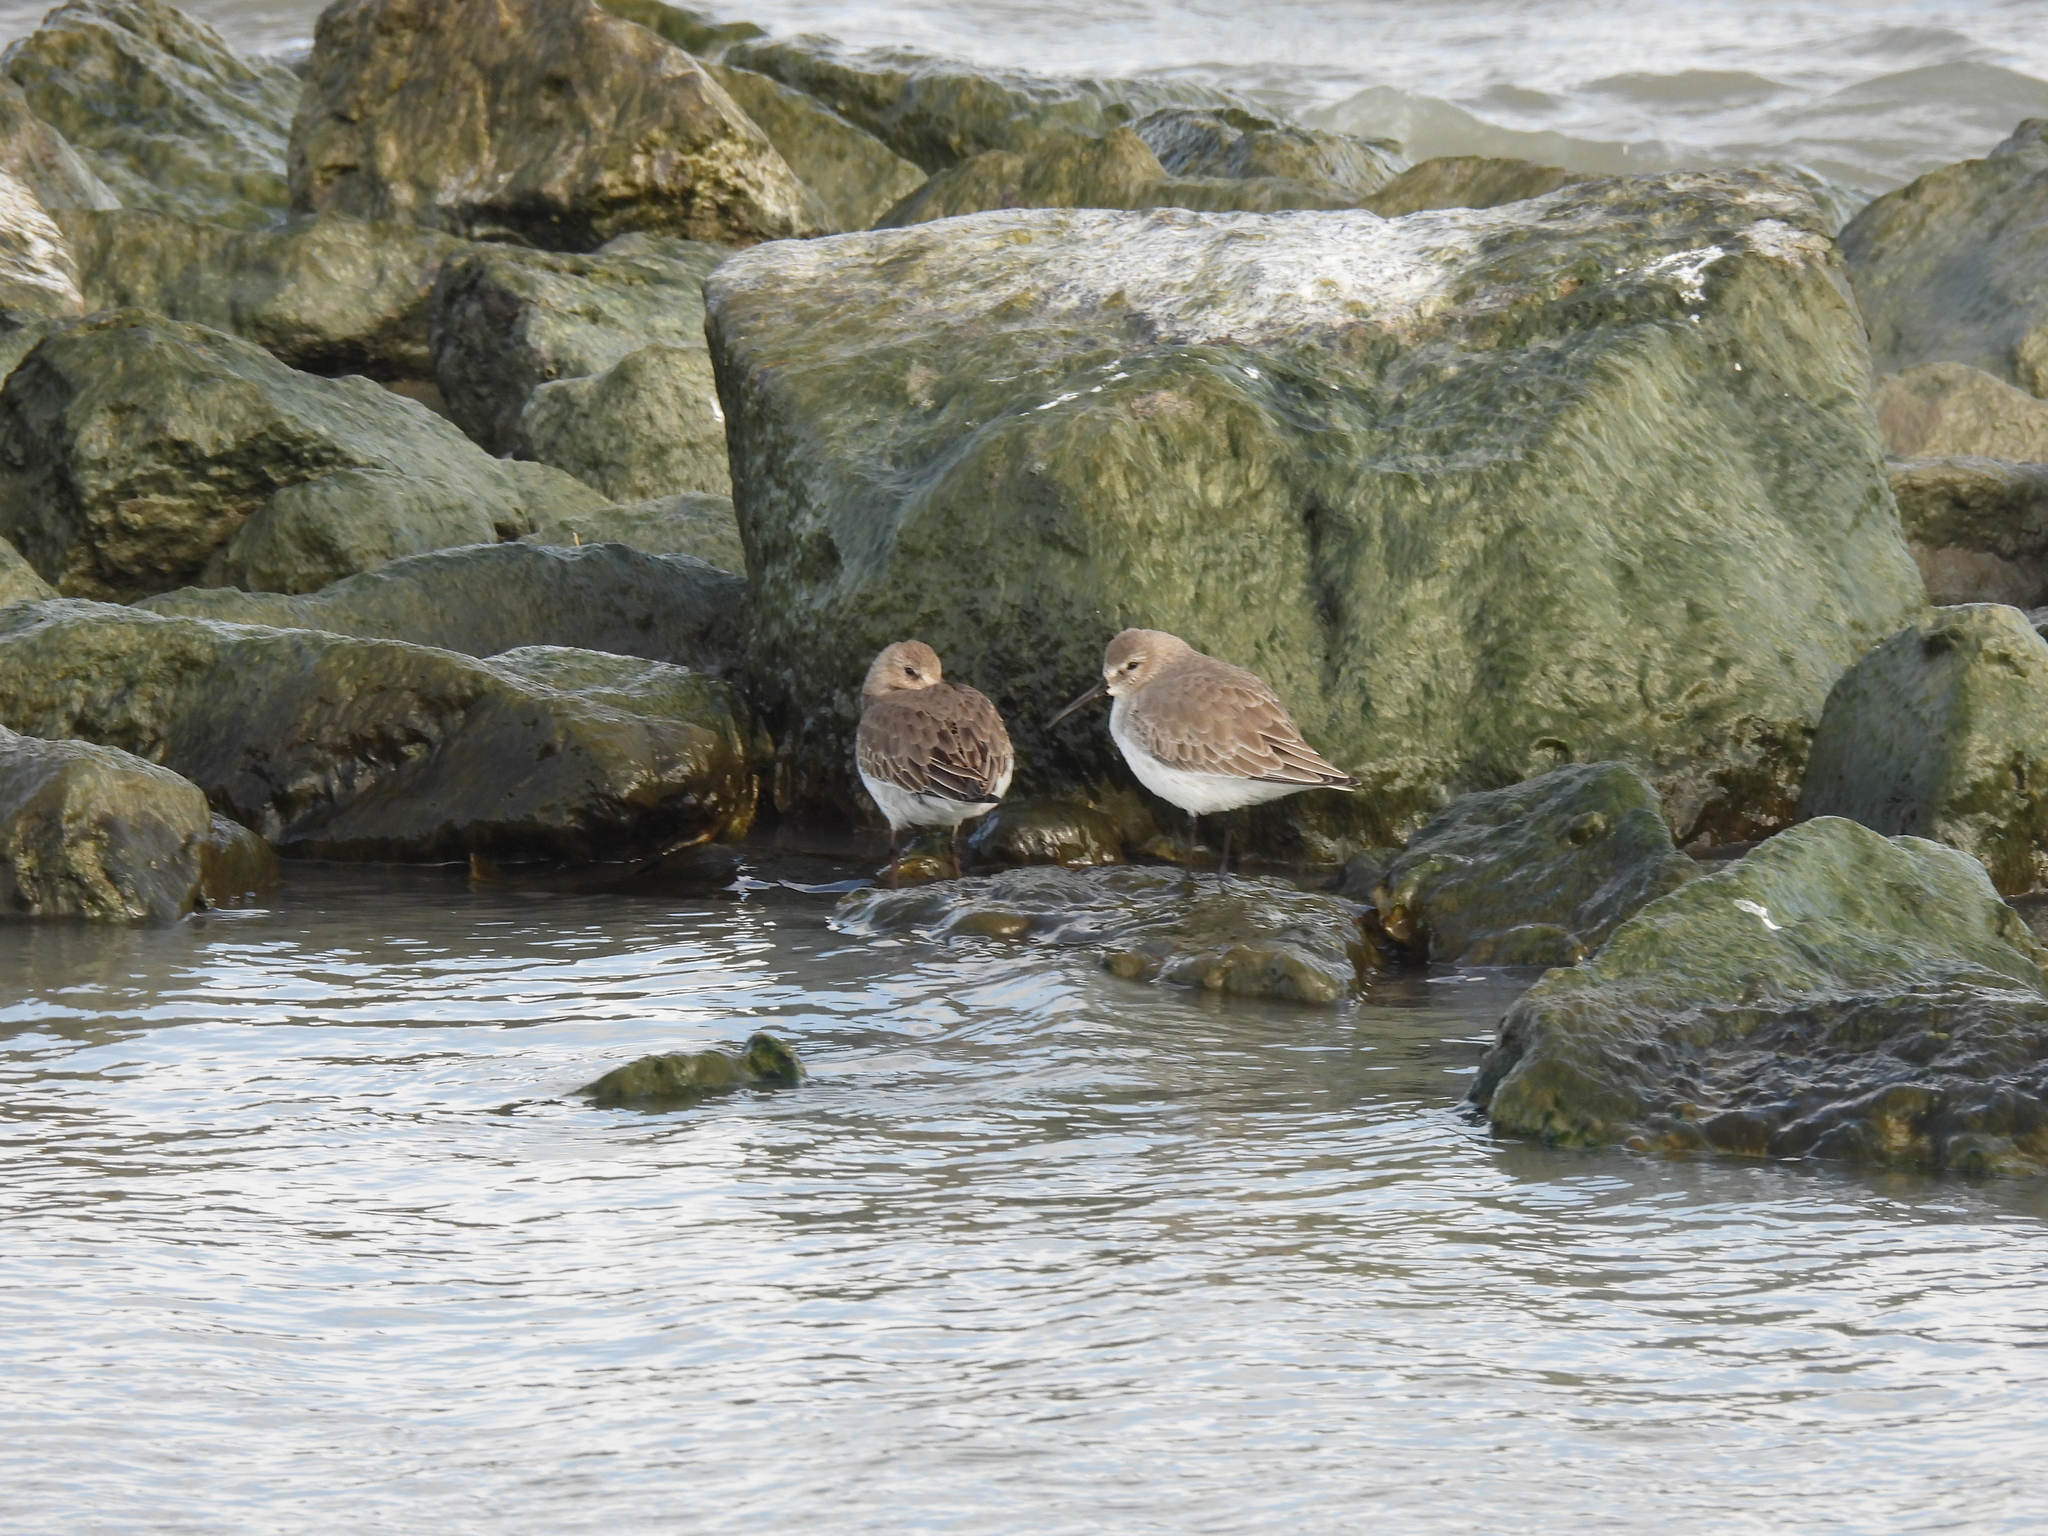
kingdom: Animalia
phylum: Chordata
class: Aves
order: Charadriiformes
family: Scolopacidae
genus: Calidris
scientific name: Calidris alpina
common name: Dunlin
